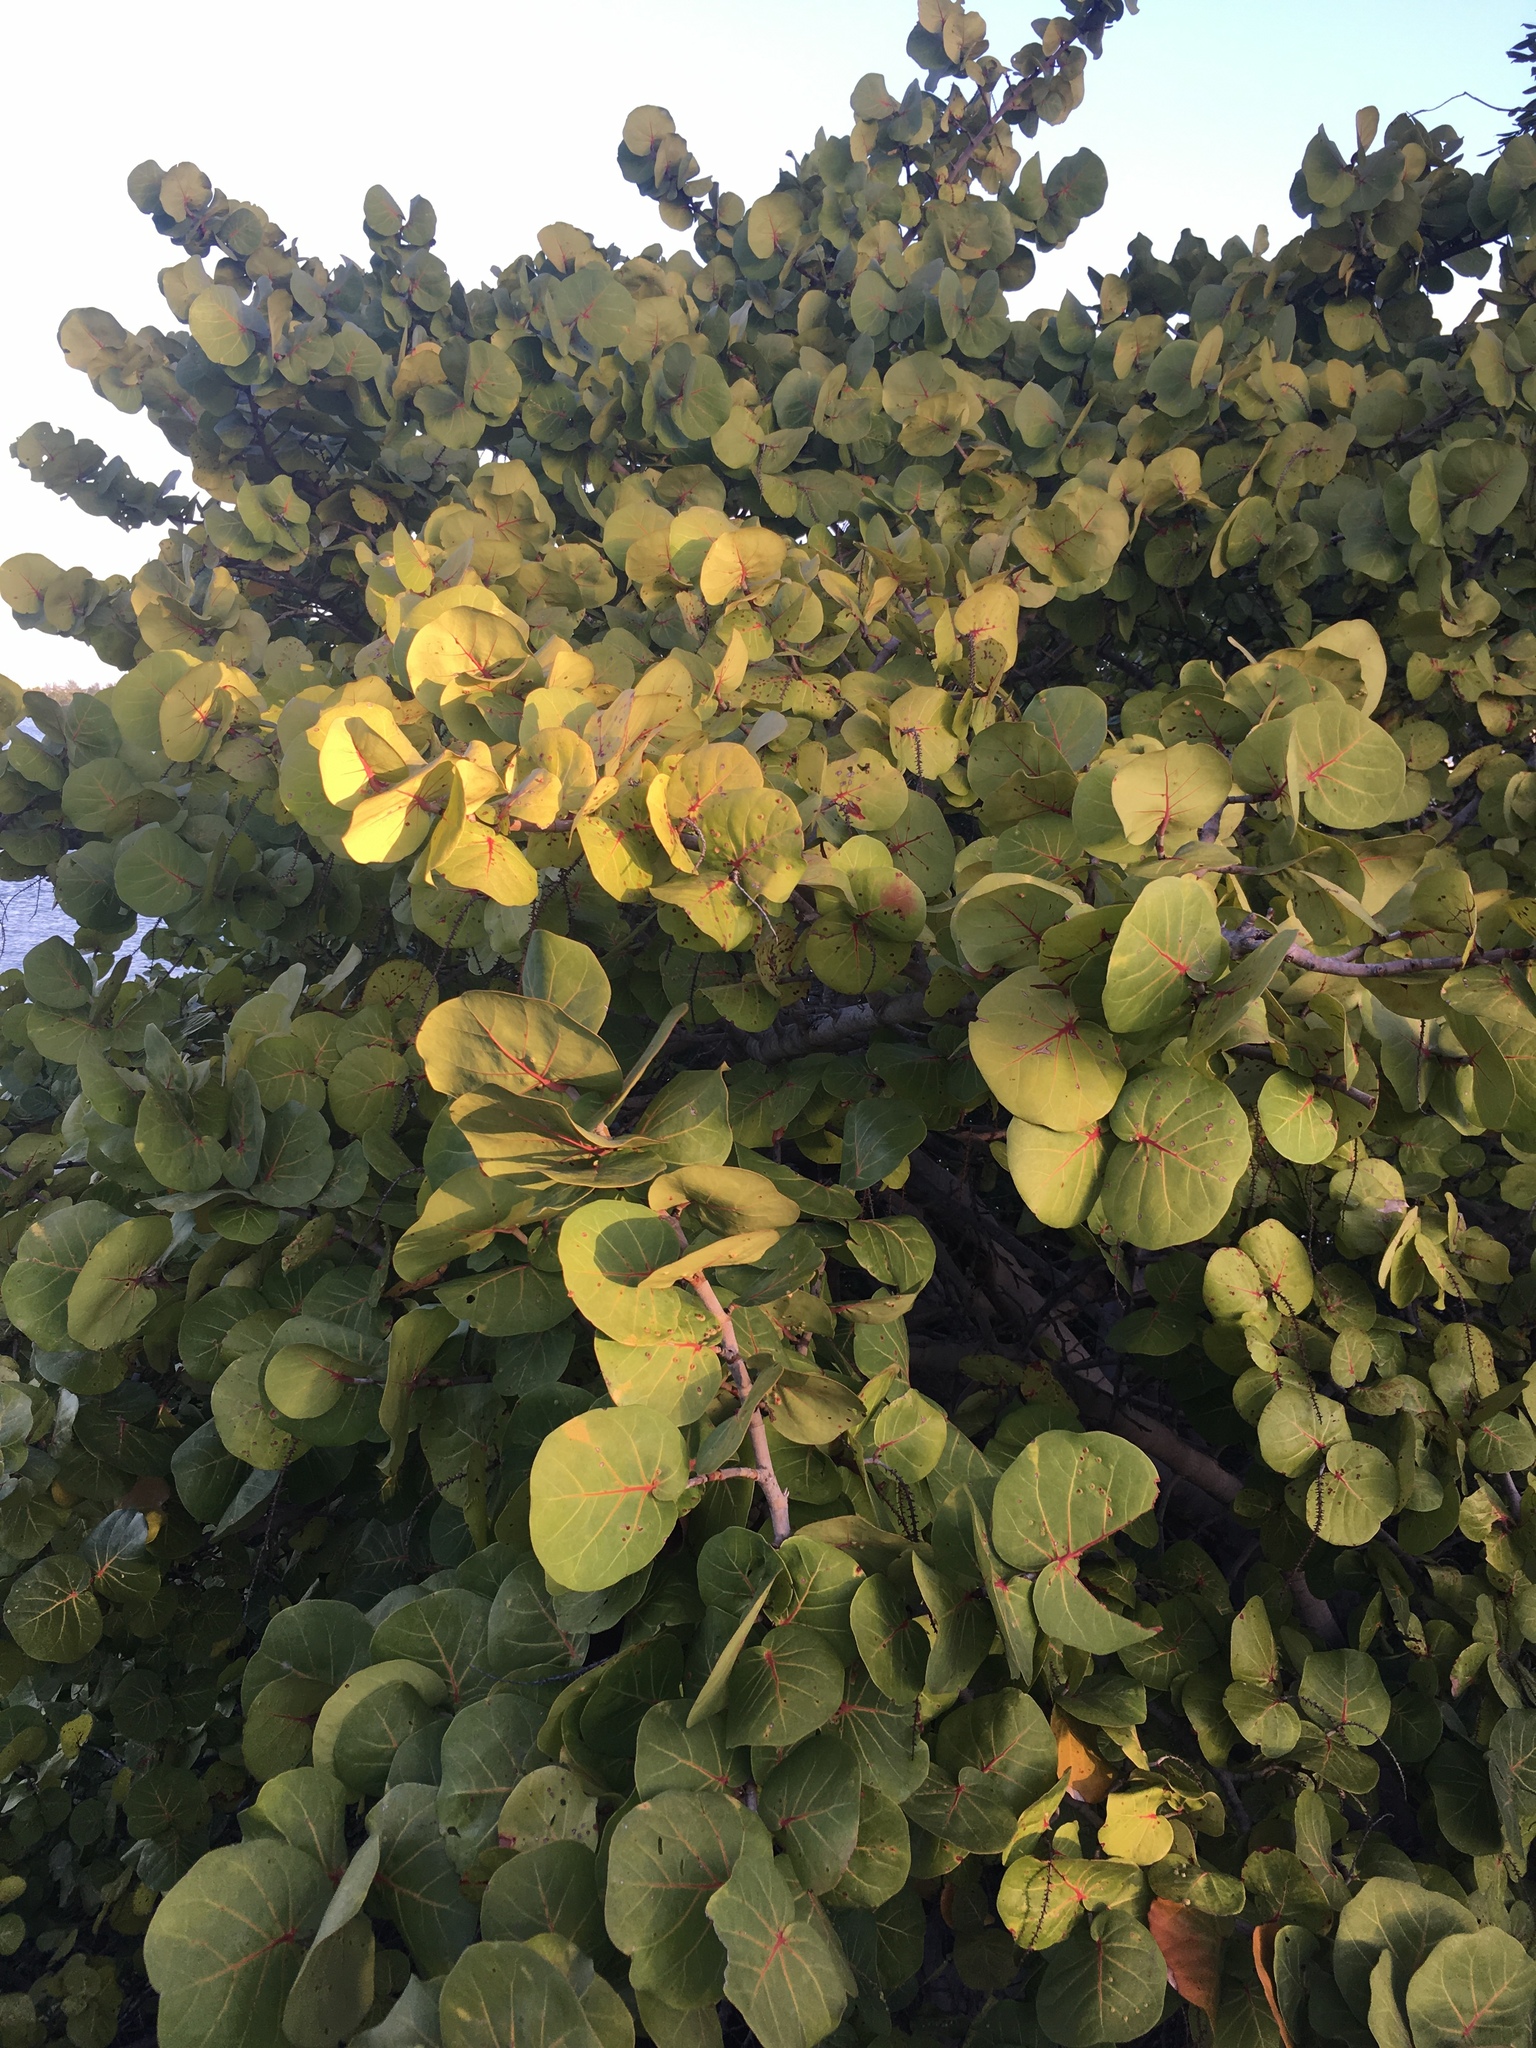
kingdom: Plantae
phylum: Tracheophyta
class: Magnoliopsida
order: Caryophyllales
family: Polygonaceae
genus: Coccoloba
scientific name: Coccoloba uvifera
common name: Seagrape
